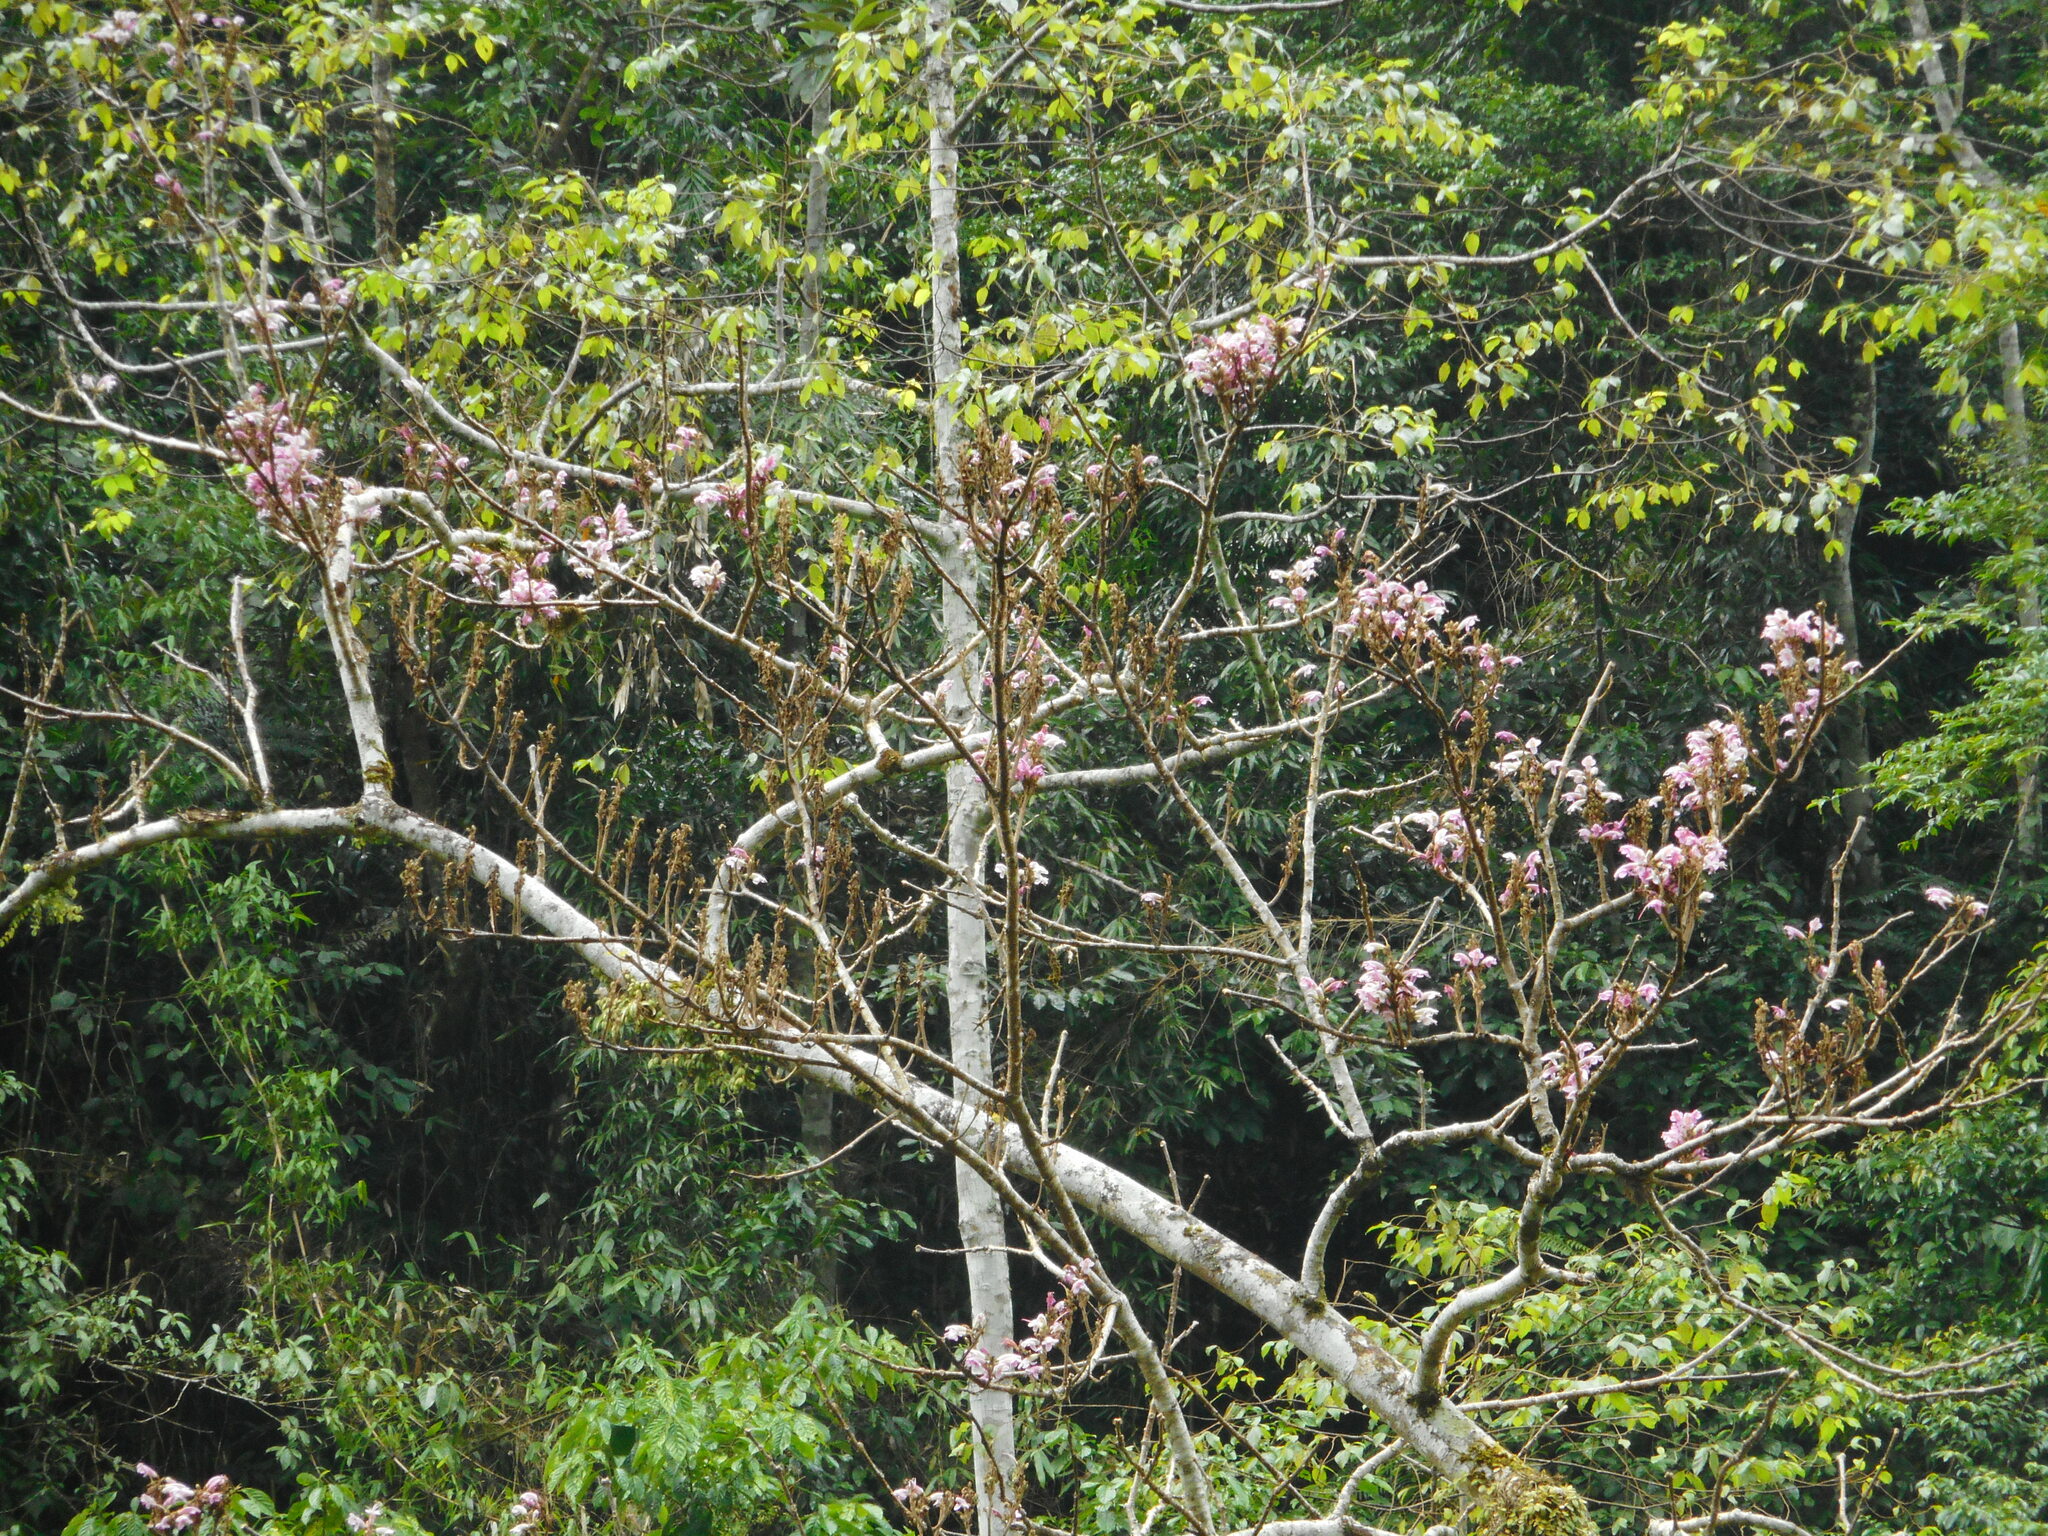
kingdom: Plantae
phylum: Tracheophyta
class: Magnoliopsida
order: Lamiales
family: Wightiaceae
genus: Wightia
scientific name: Wightia speciosissima
